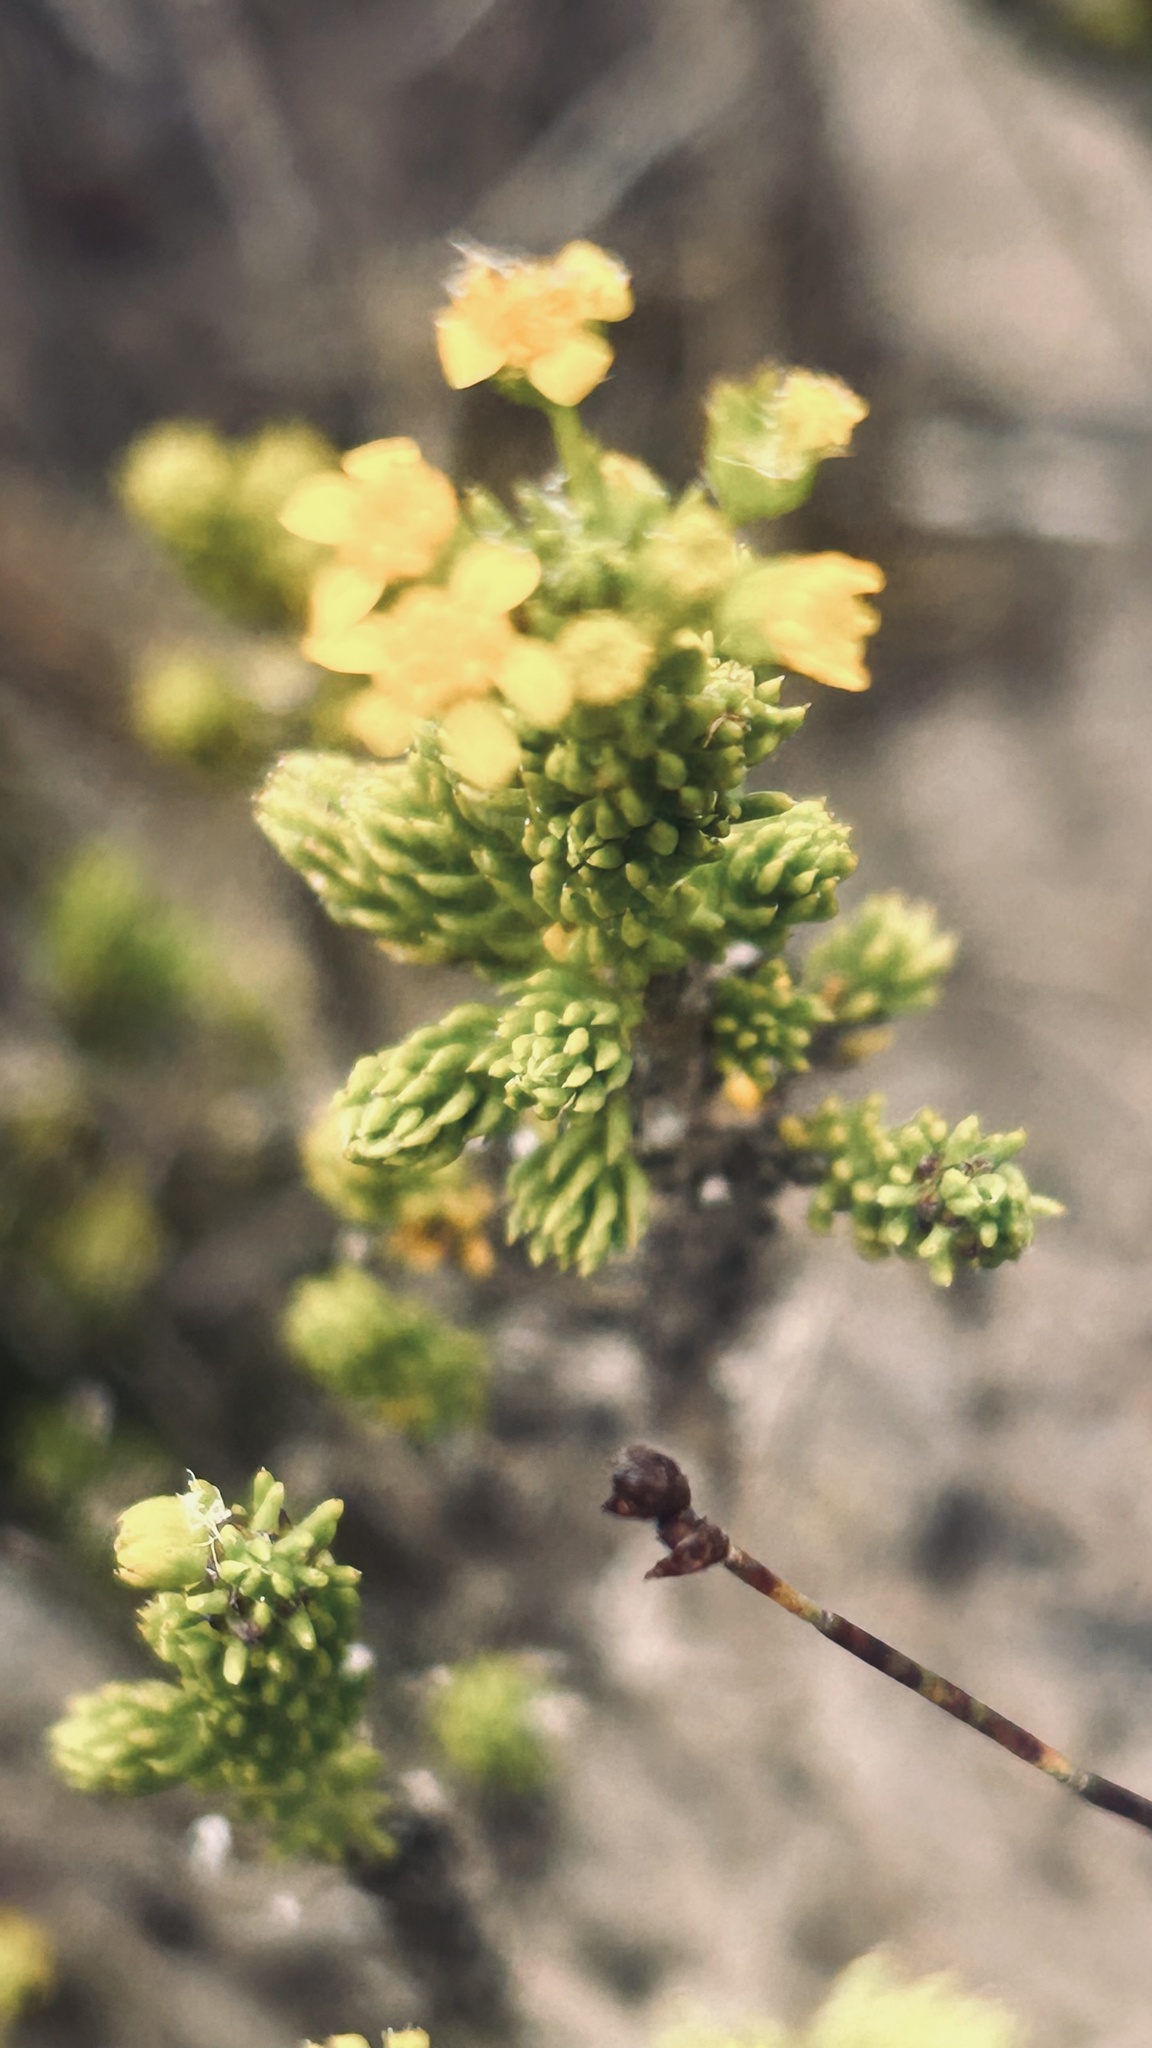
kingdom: Plantae
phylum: Tracheophyta
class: Magnoliopsida
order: Asterales
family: Asteraceae
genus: Euryops
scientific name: Euryops muirii
